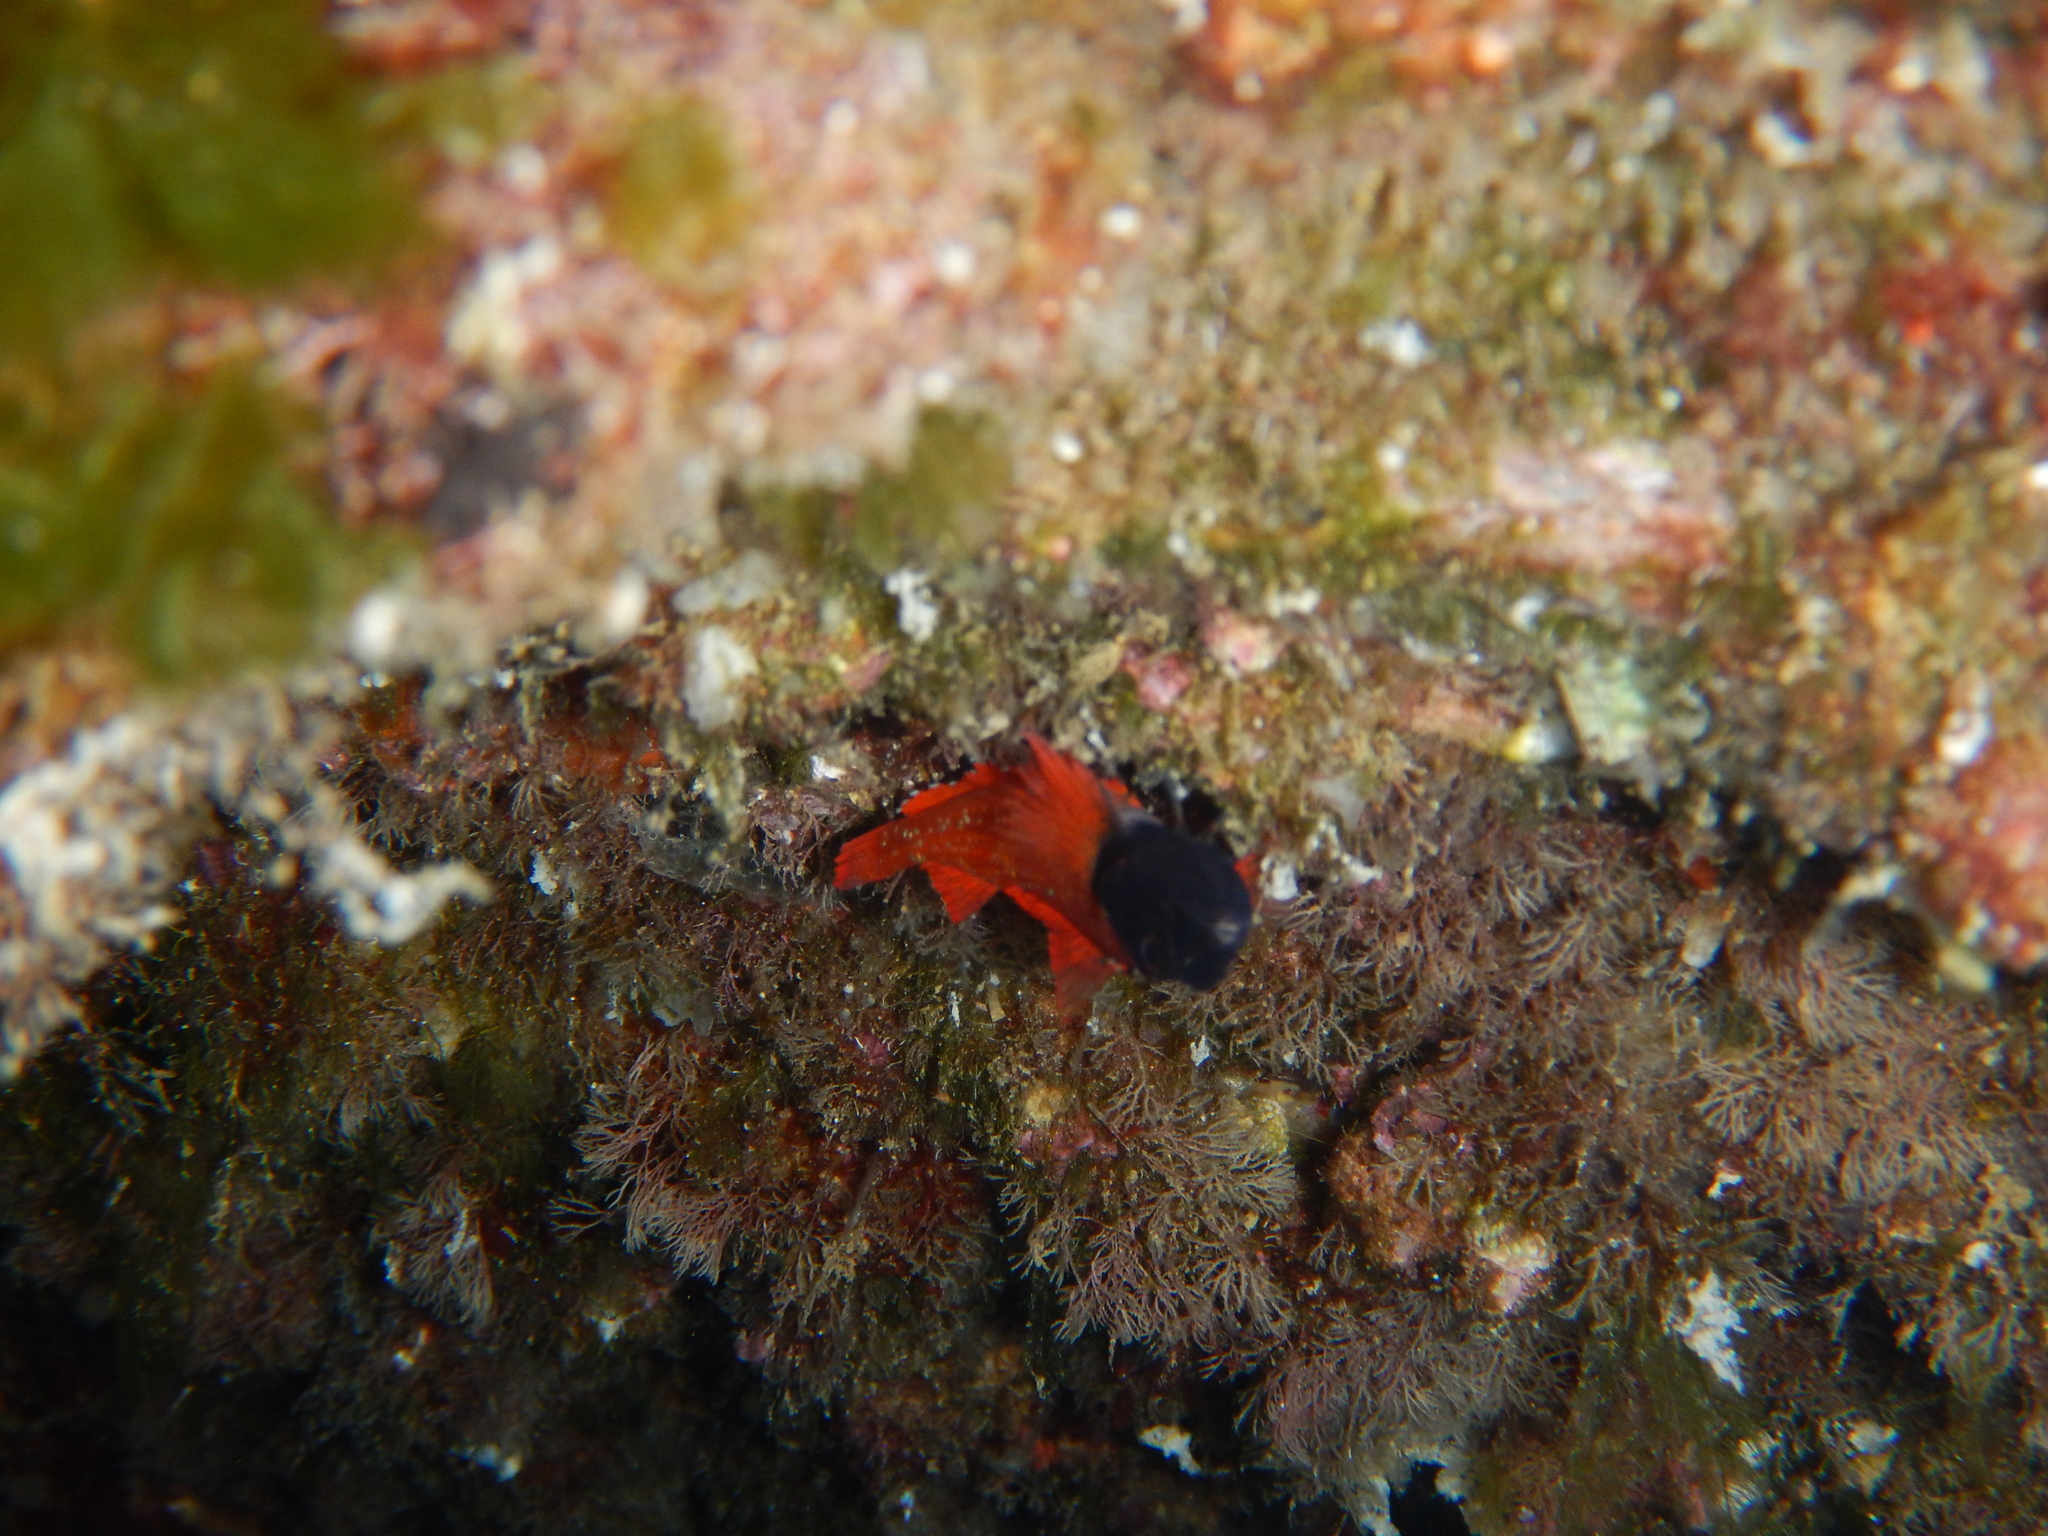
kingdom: Animalia
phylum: Chordata
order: Perciformes
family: Tripterygiidae
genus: Tripterygion
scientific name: Tripterygion tripteronotum
